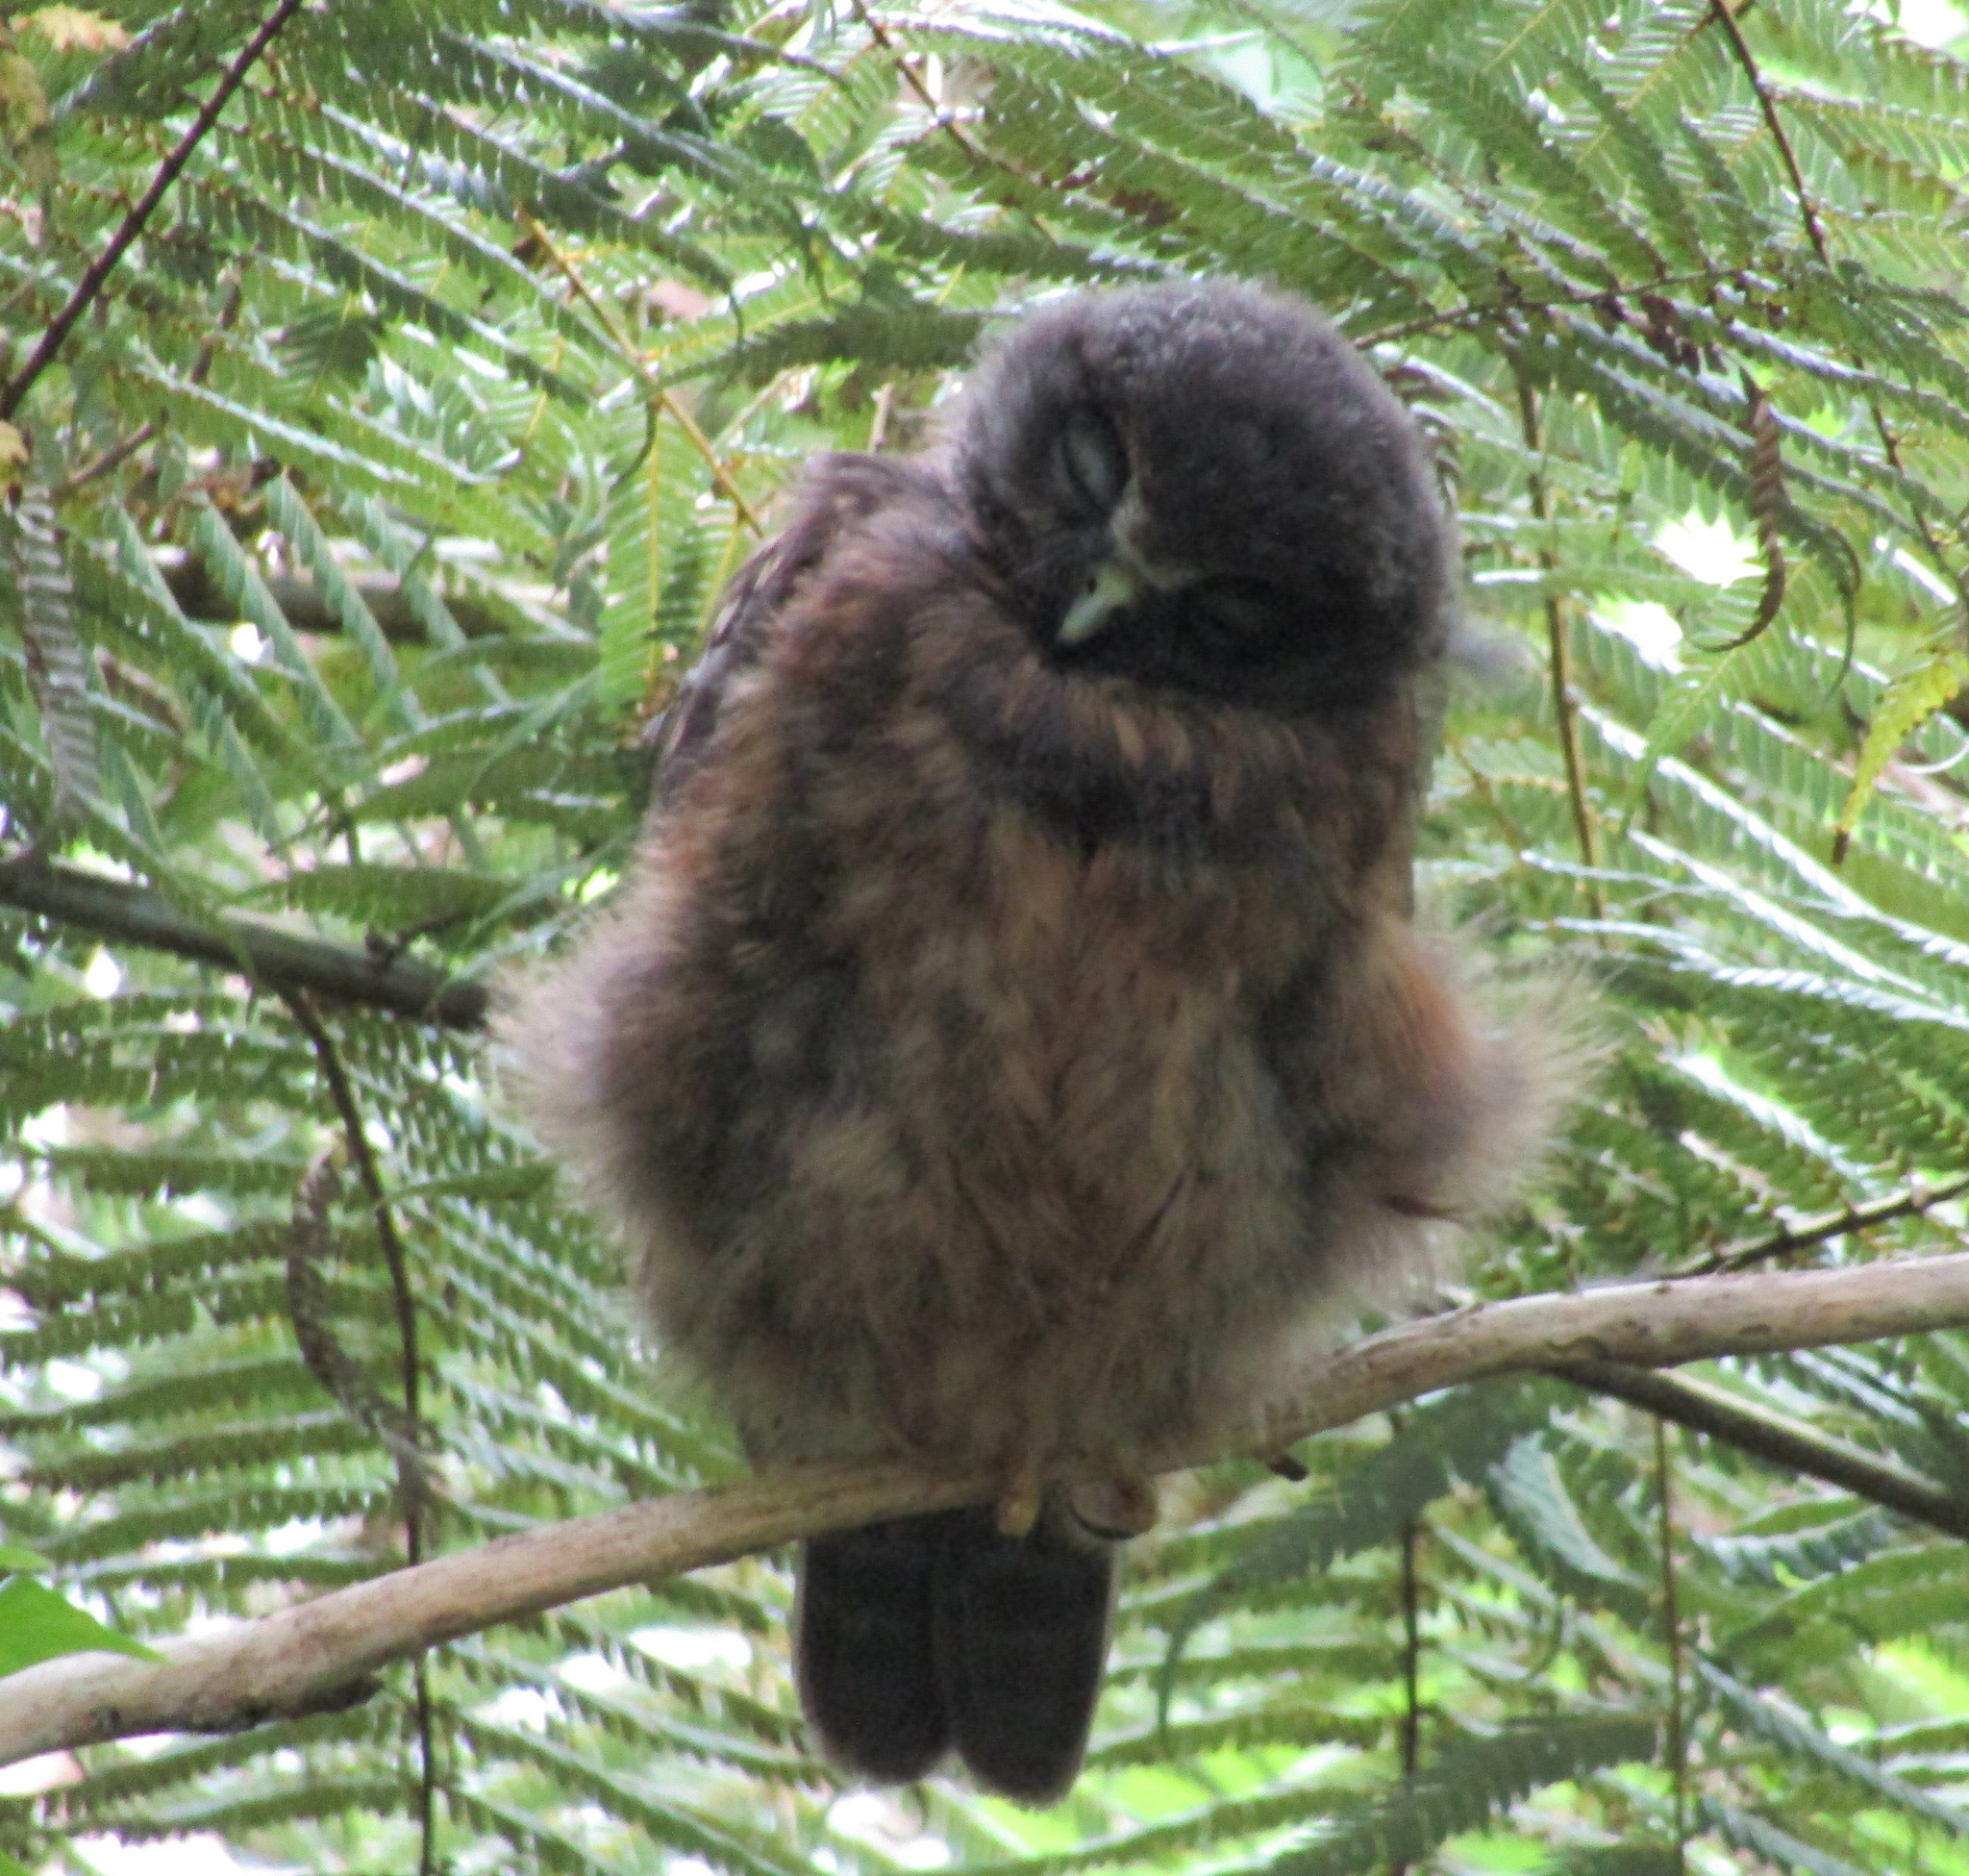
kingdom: Animalia
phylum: Chordata
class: Aves
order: Strigiformes
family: Strigidae
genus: Ninox
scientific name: Ninox novaeseelandiae
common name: Morepork
